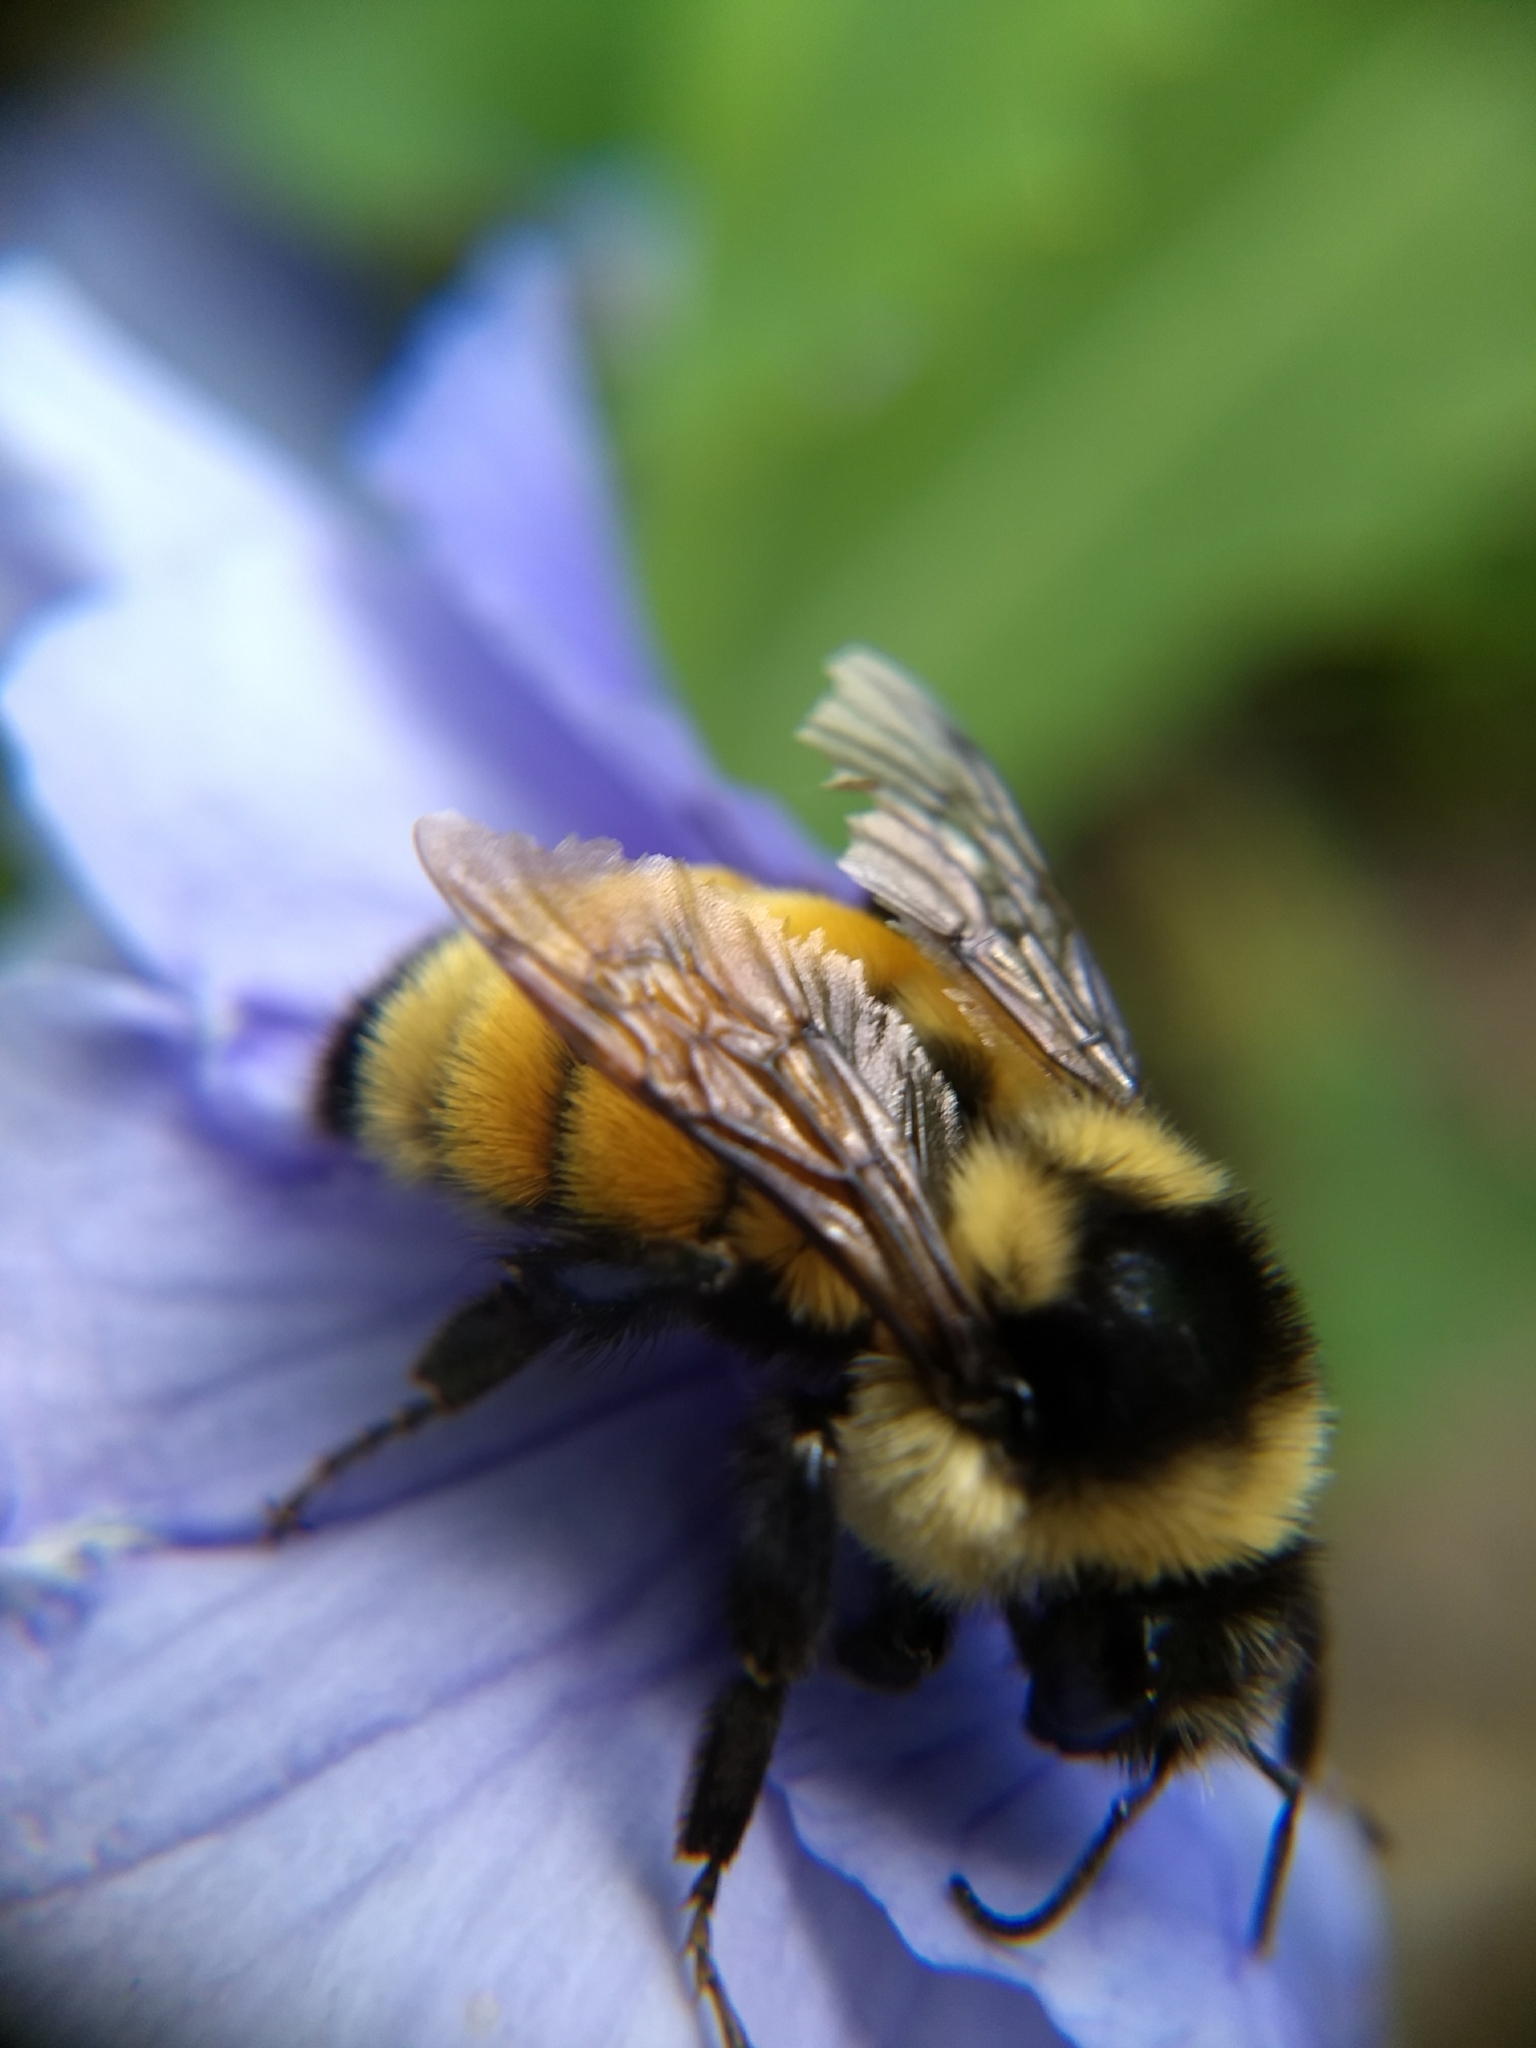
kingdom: Animalia
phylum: Arthropoda
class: Insecta
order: Hymenoptera
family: Apidae
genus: Bombus
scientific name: Bombus ternarius
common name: Tri-colored bumble bee
